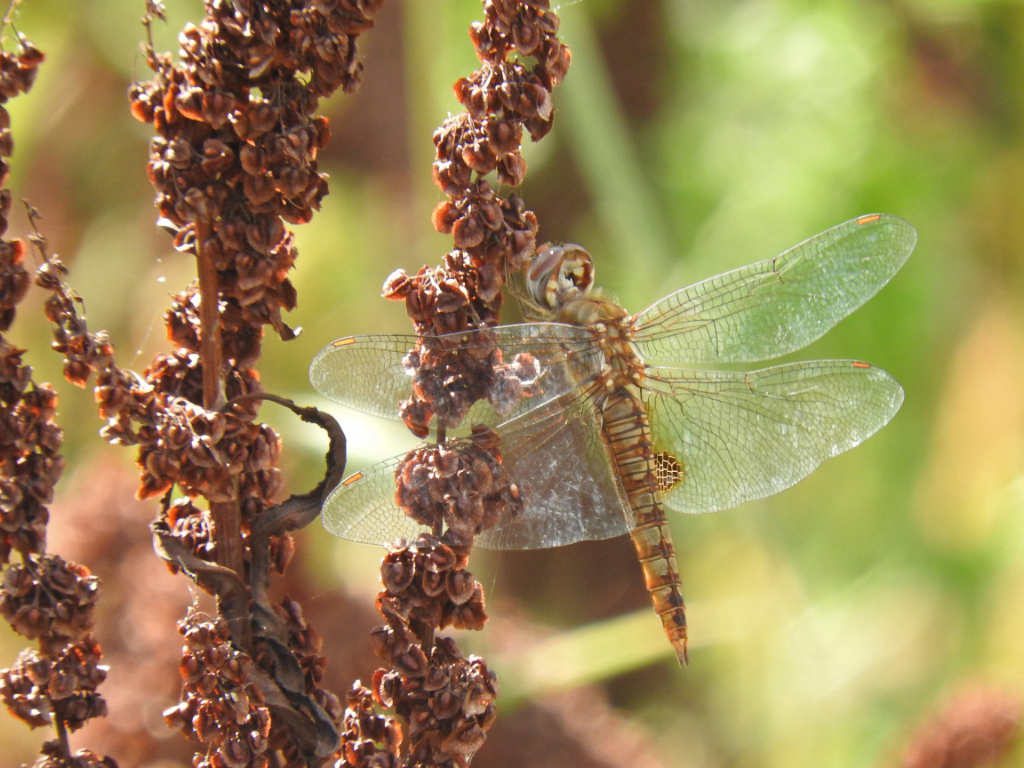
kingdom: Animalia
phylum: Arthropoda
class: Insecta
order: Odonata
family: Libellulidae
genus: Pantala
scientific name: Pantala hymenaea
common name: Spot-winged glider
